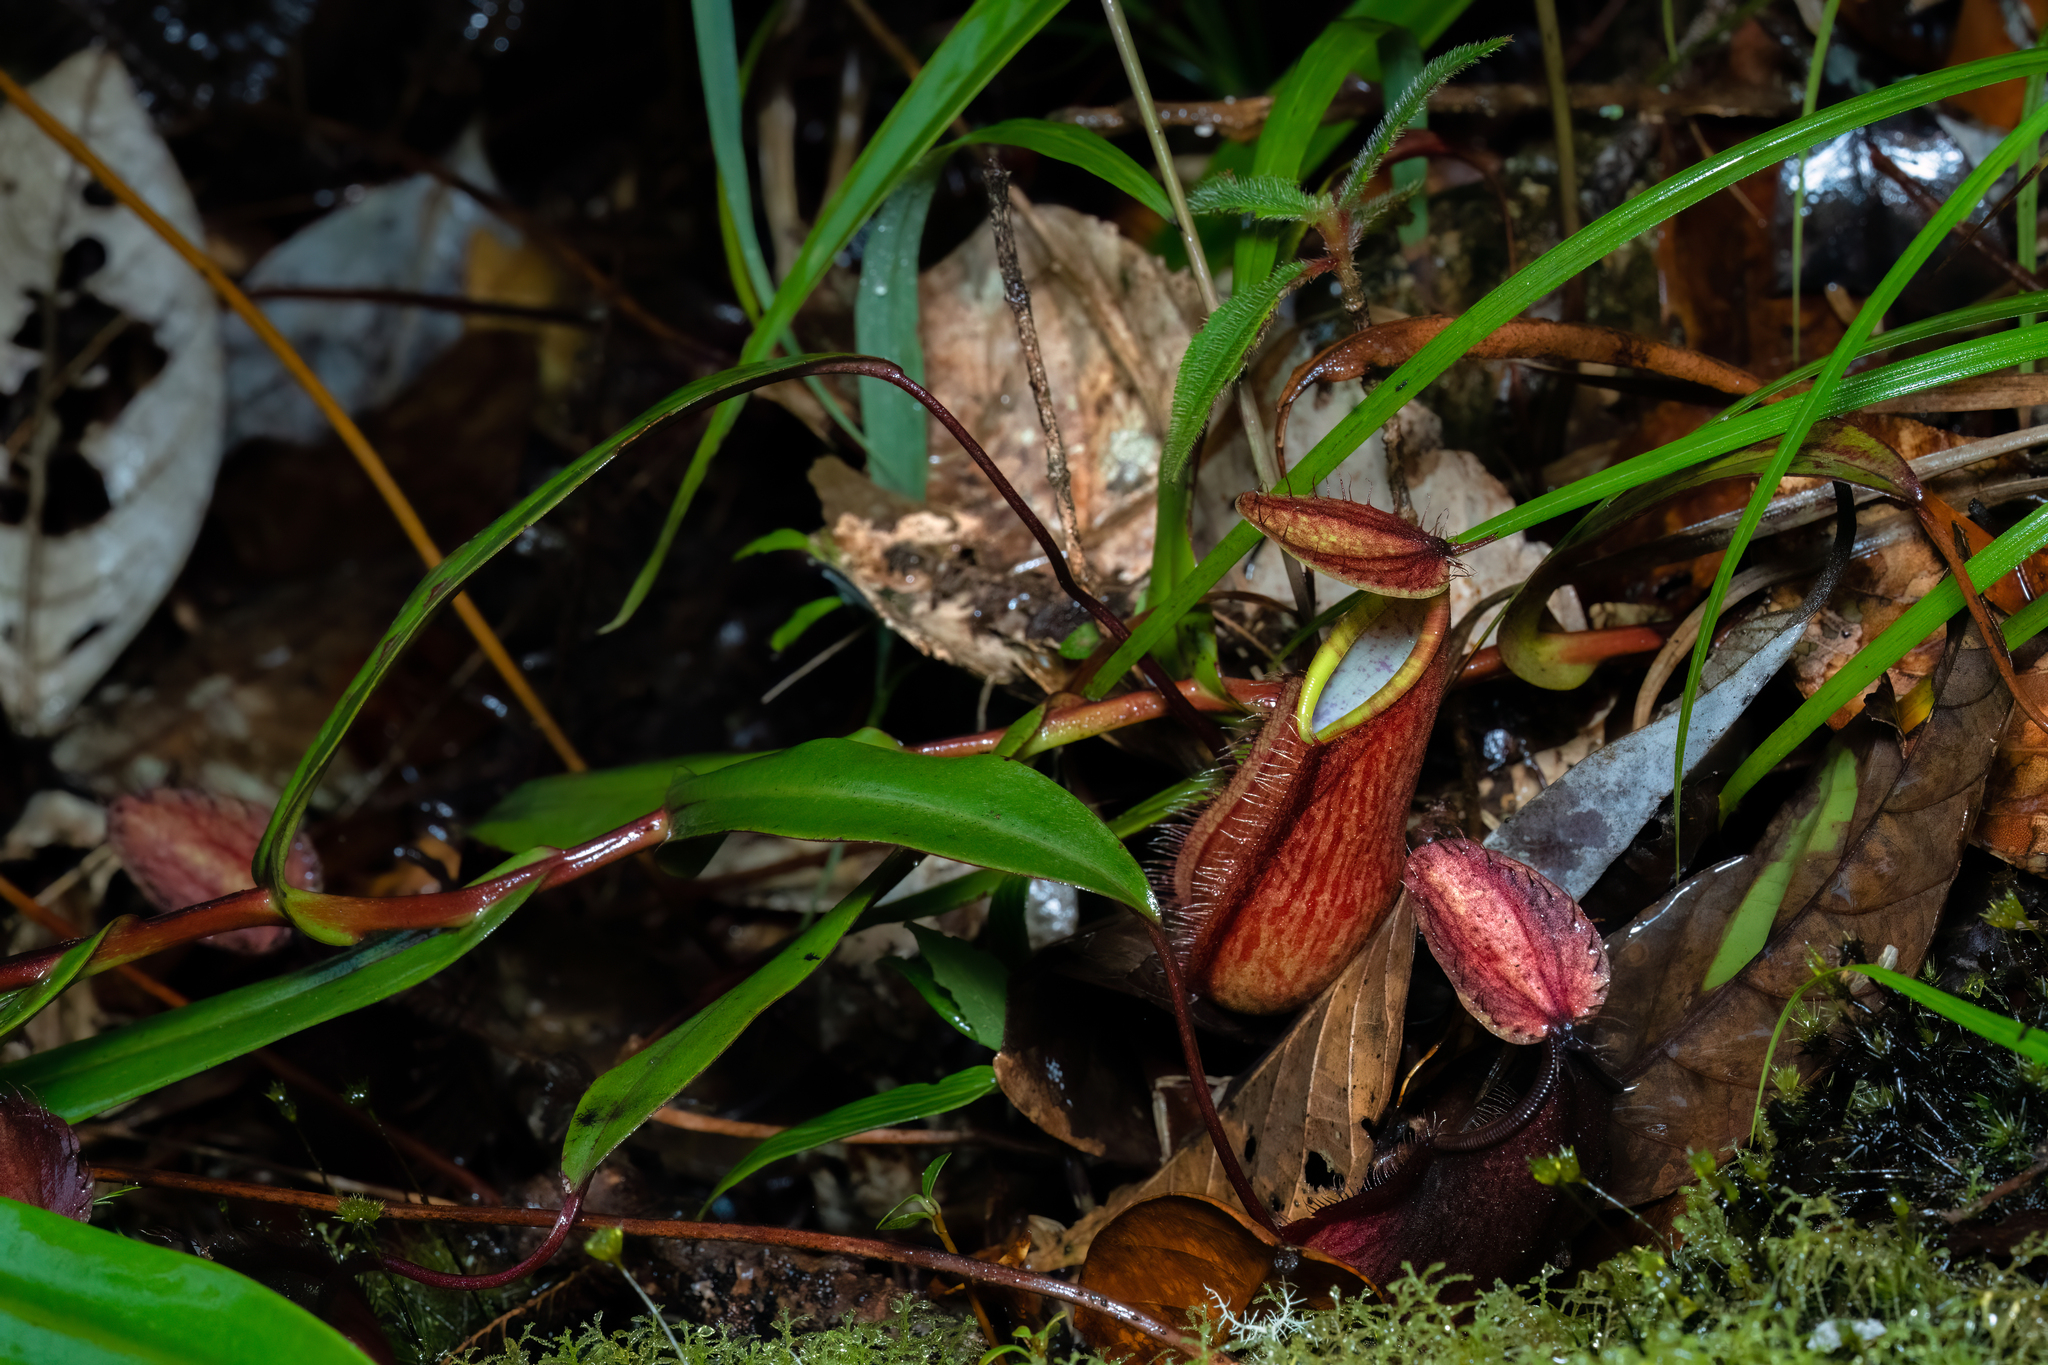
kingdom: Plantae
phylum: Tracheophyta
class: Magnoliopsida
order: Caryophyllales
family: Nepenthaceae
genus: Nepenthes
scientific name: Nepenthes tentaculata
